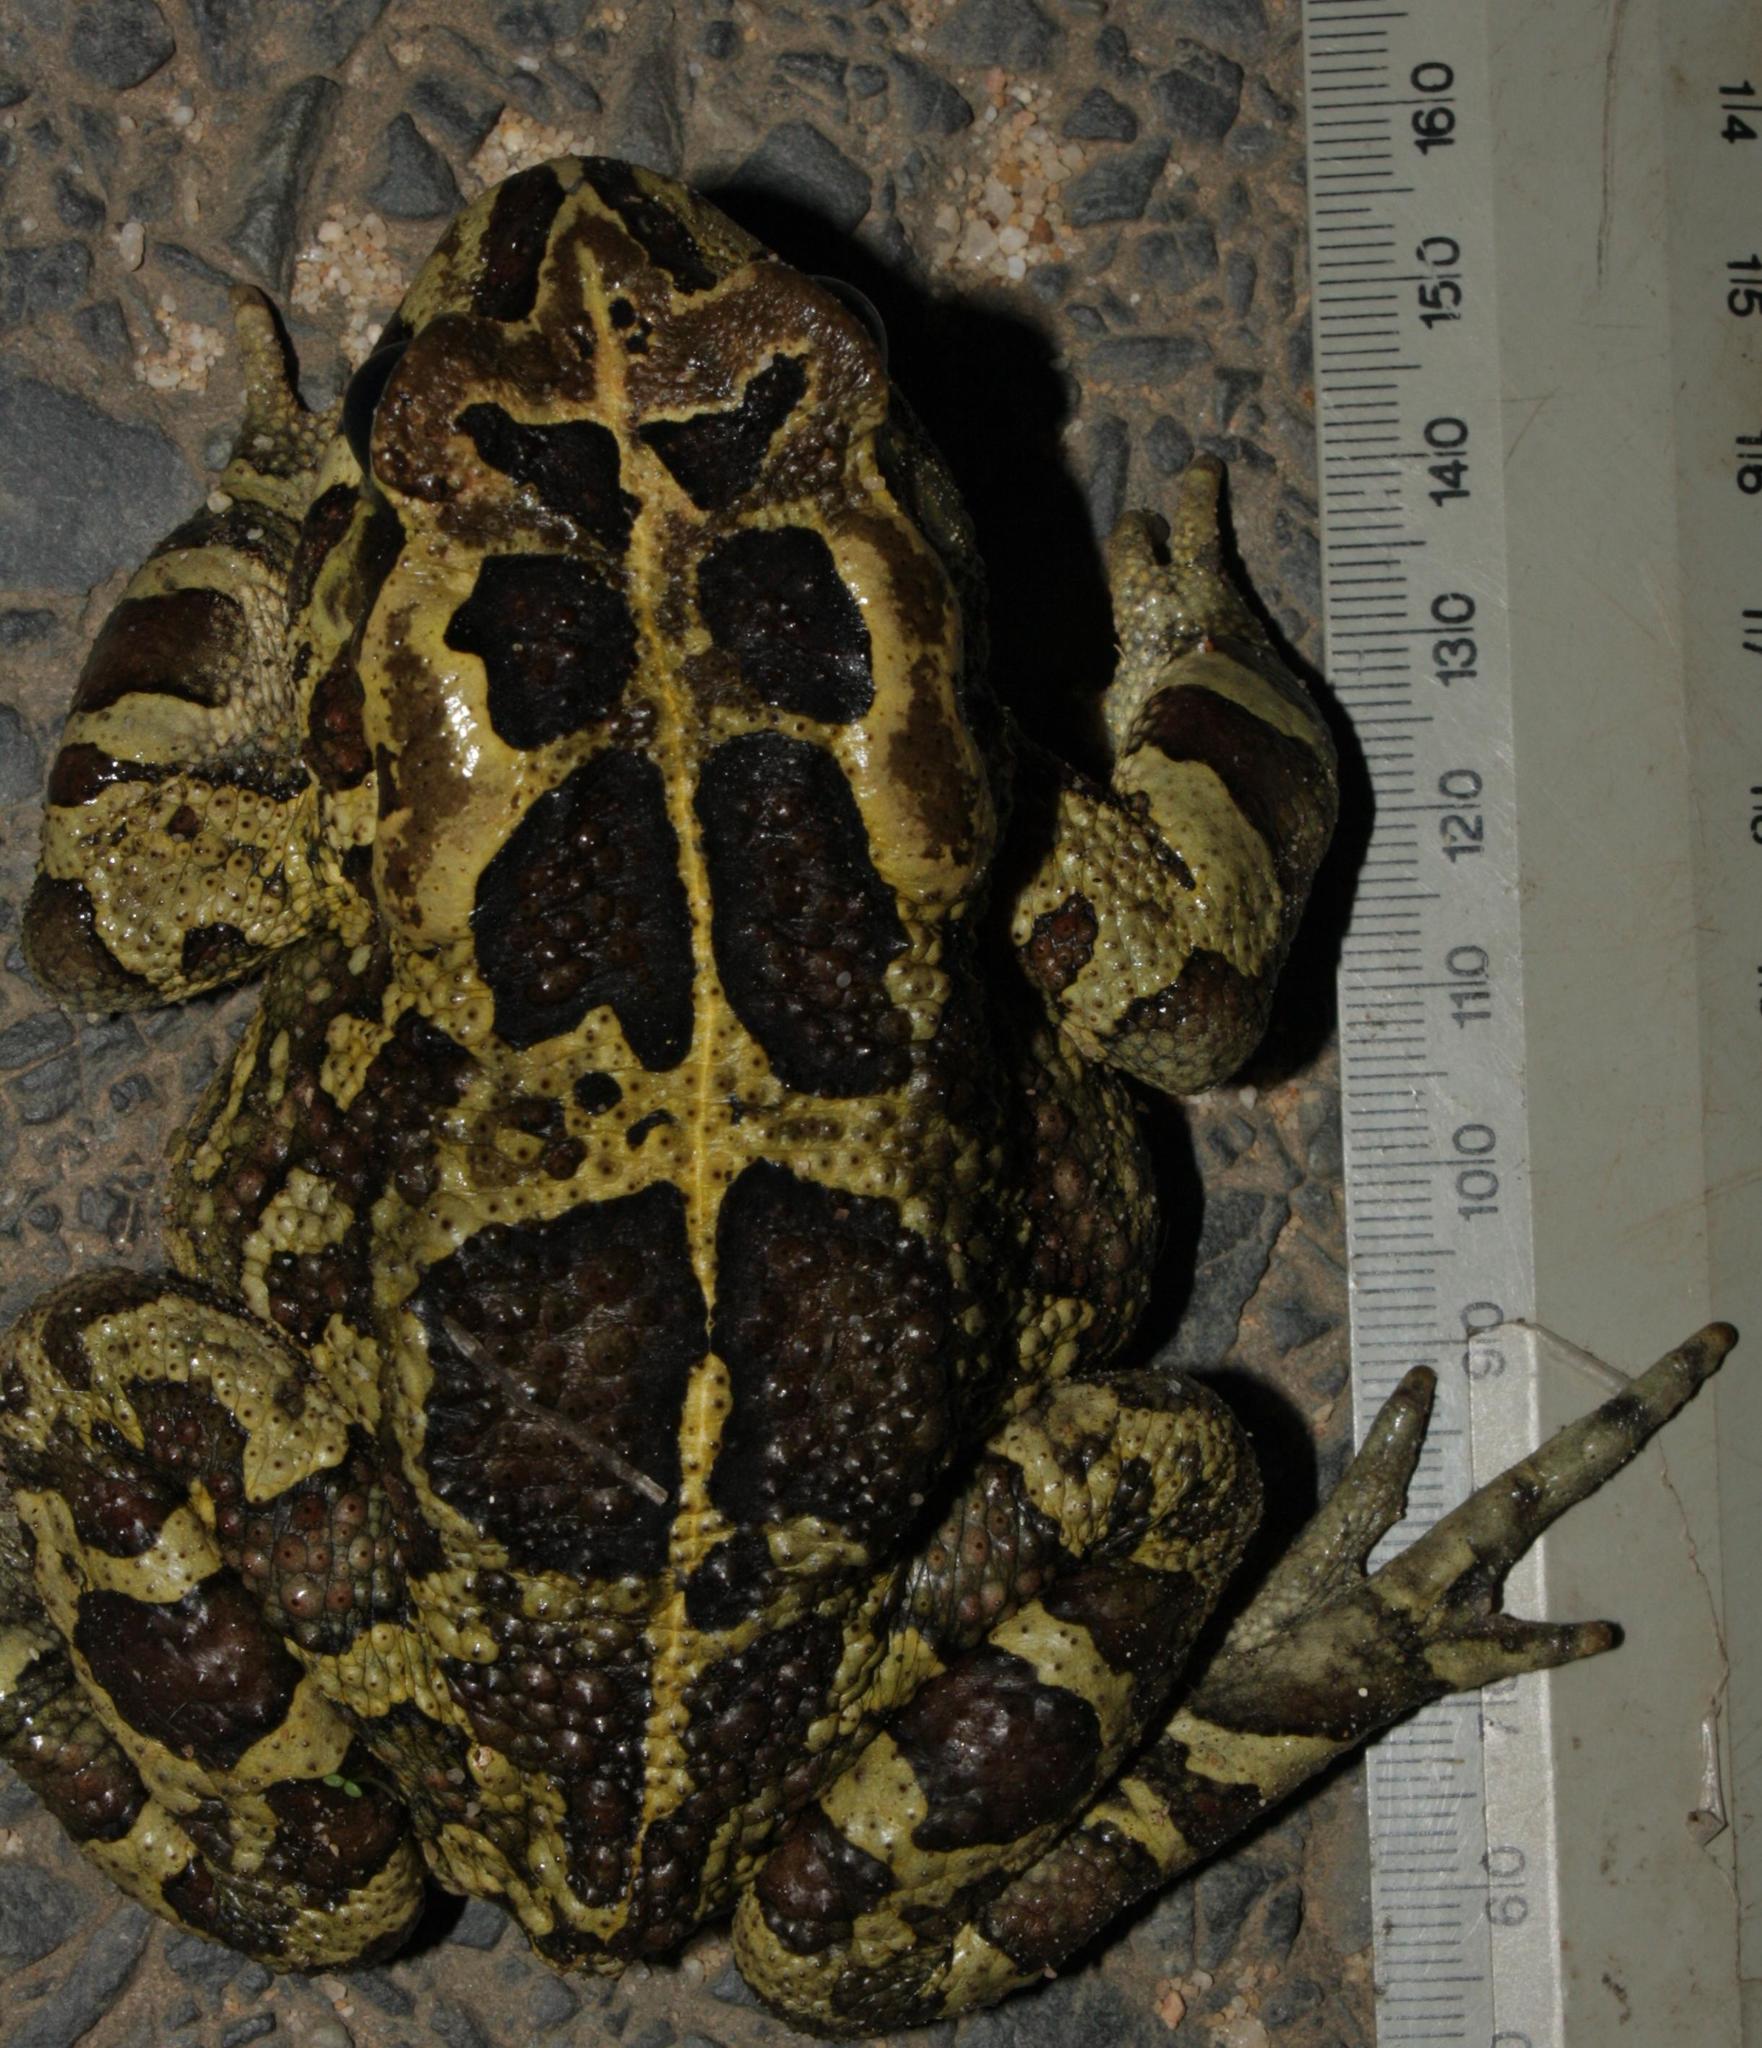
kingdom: Animalia
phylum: Chordata
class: Amphibia
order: Anura
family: Bufonidae
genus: Sclerophrys
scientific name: Sclerophrys pantherina
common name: Panther toad
